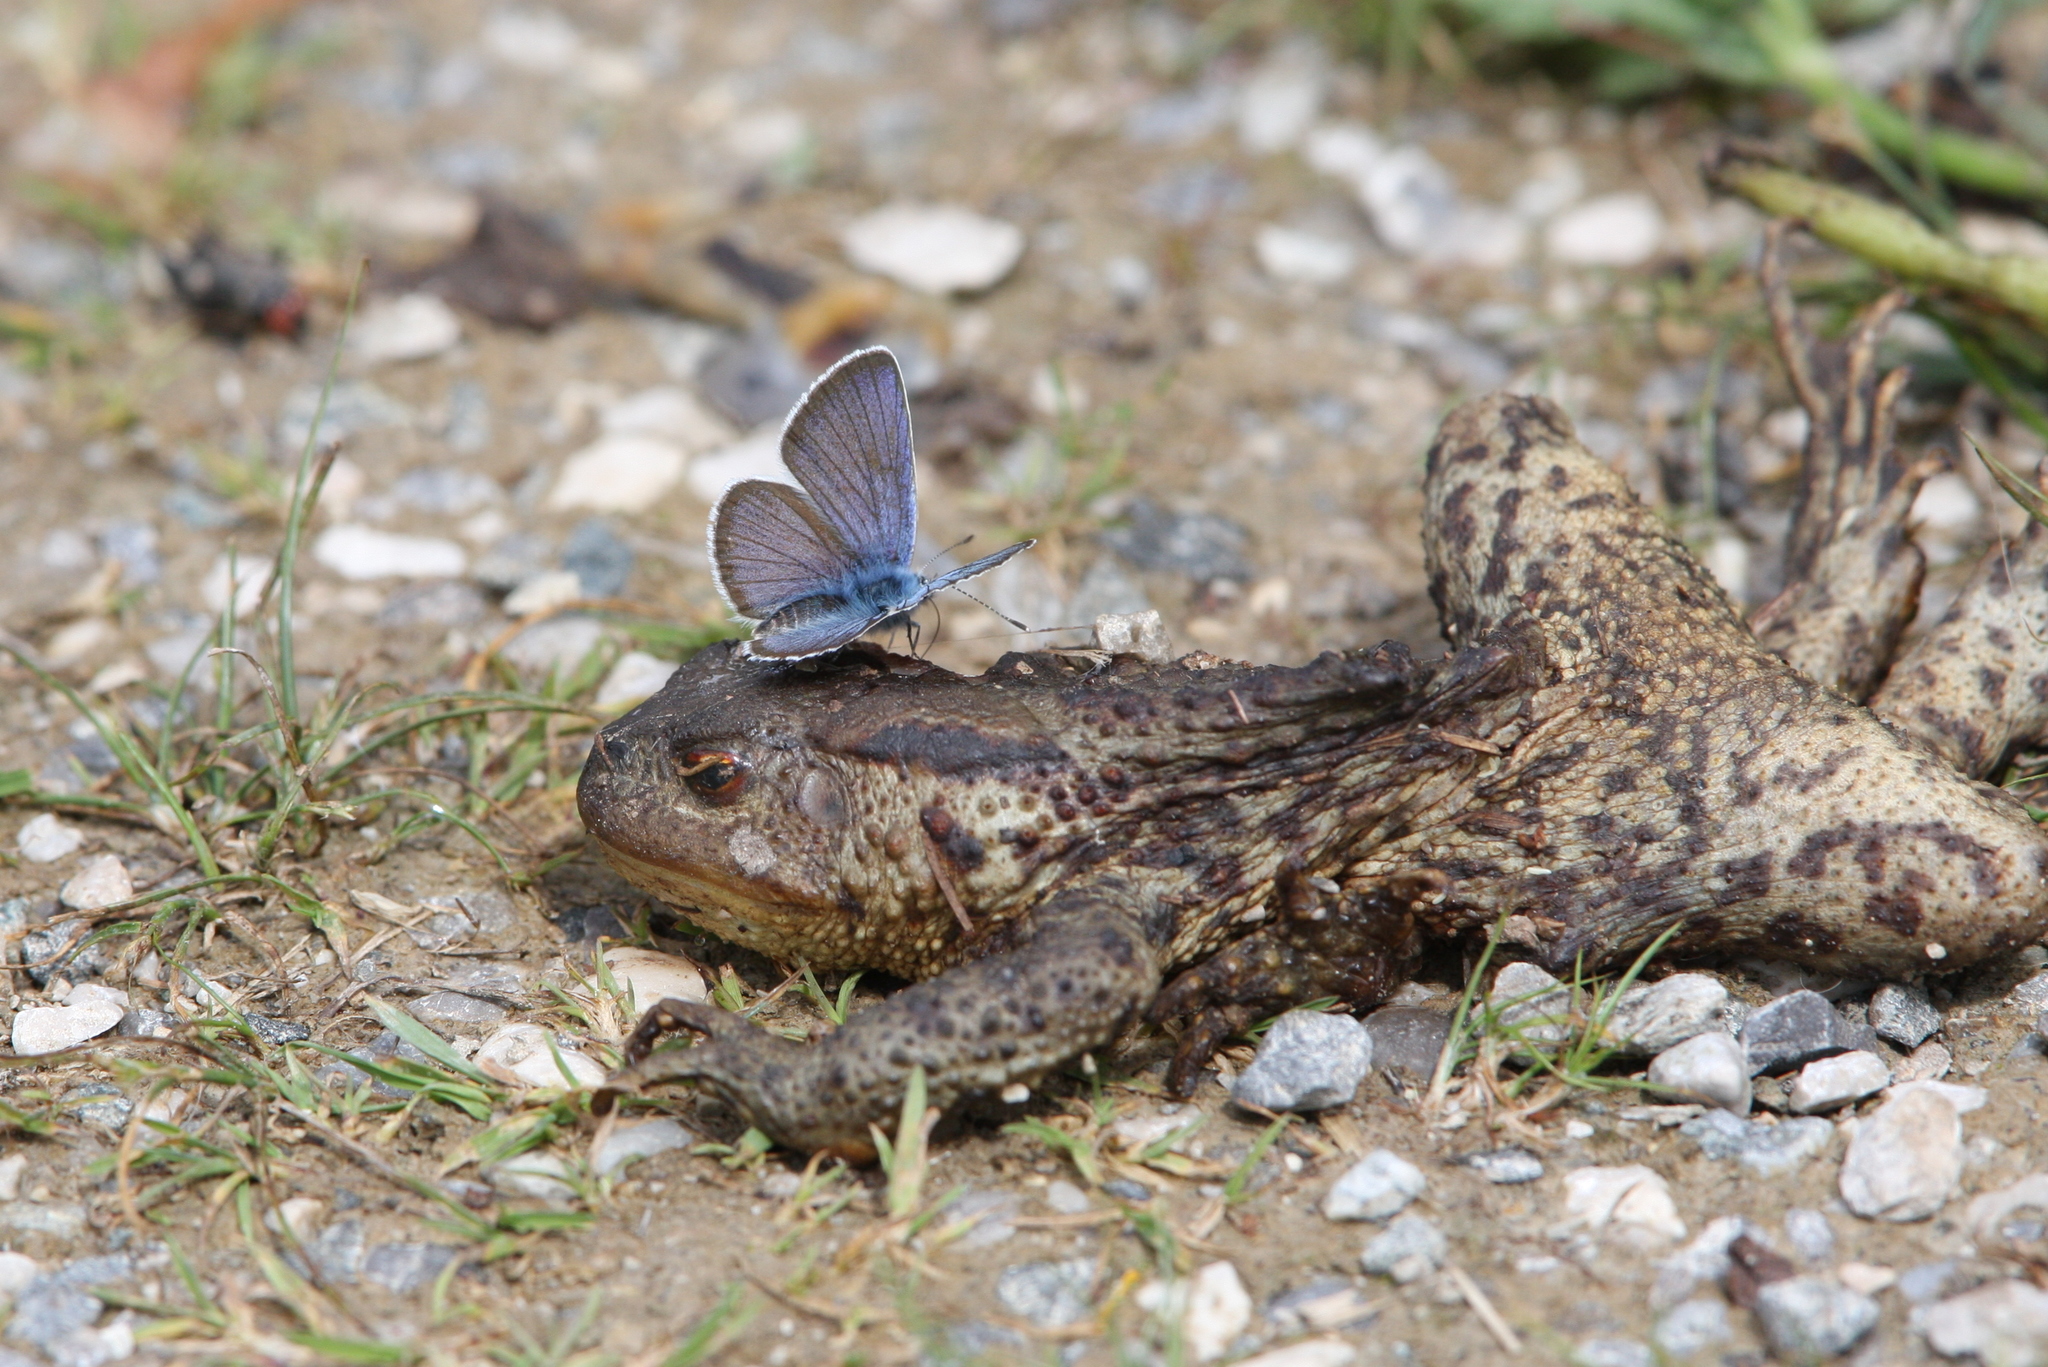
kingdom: Animalia
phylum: Arthropoda
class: Insecta
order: Lepidoptera
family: Lycaenidae
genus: Cyaniris
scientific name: Cyaniris semiargus
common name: Mazarine blue
